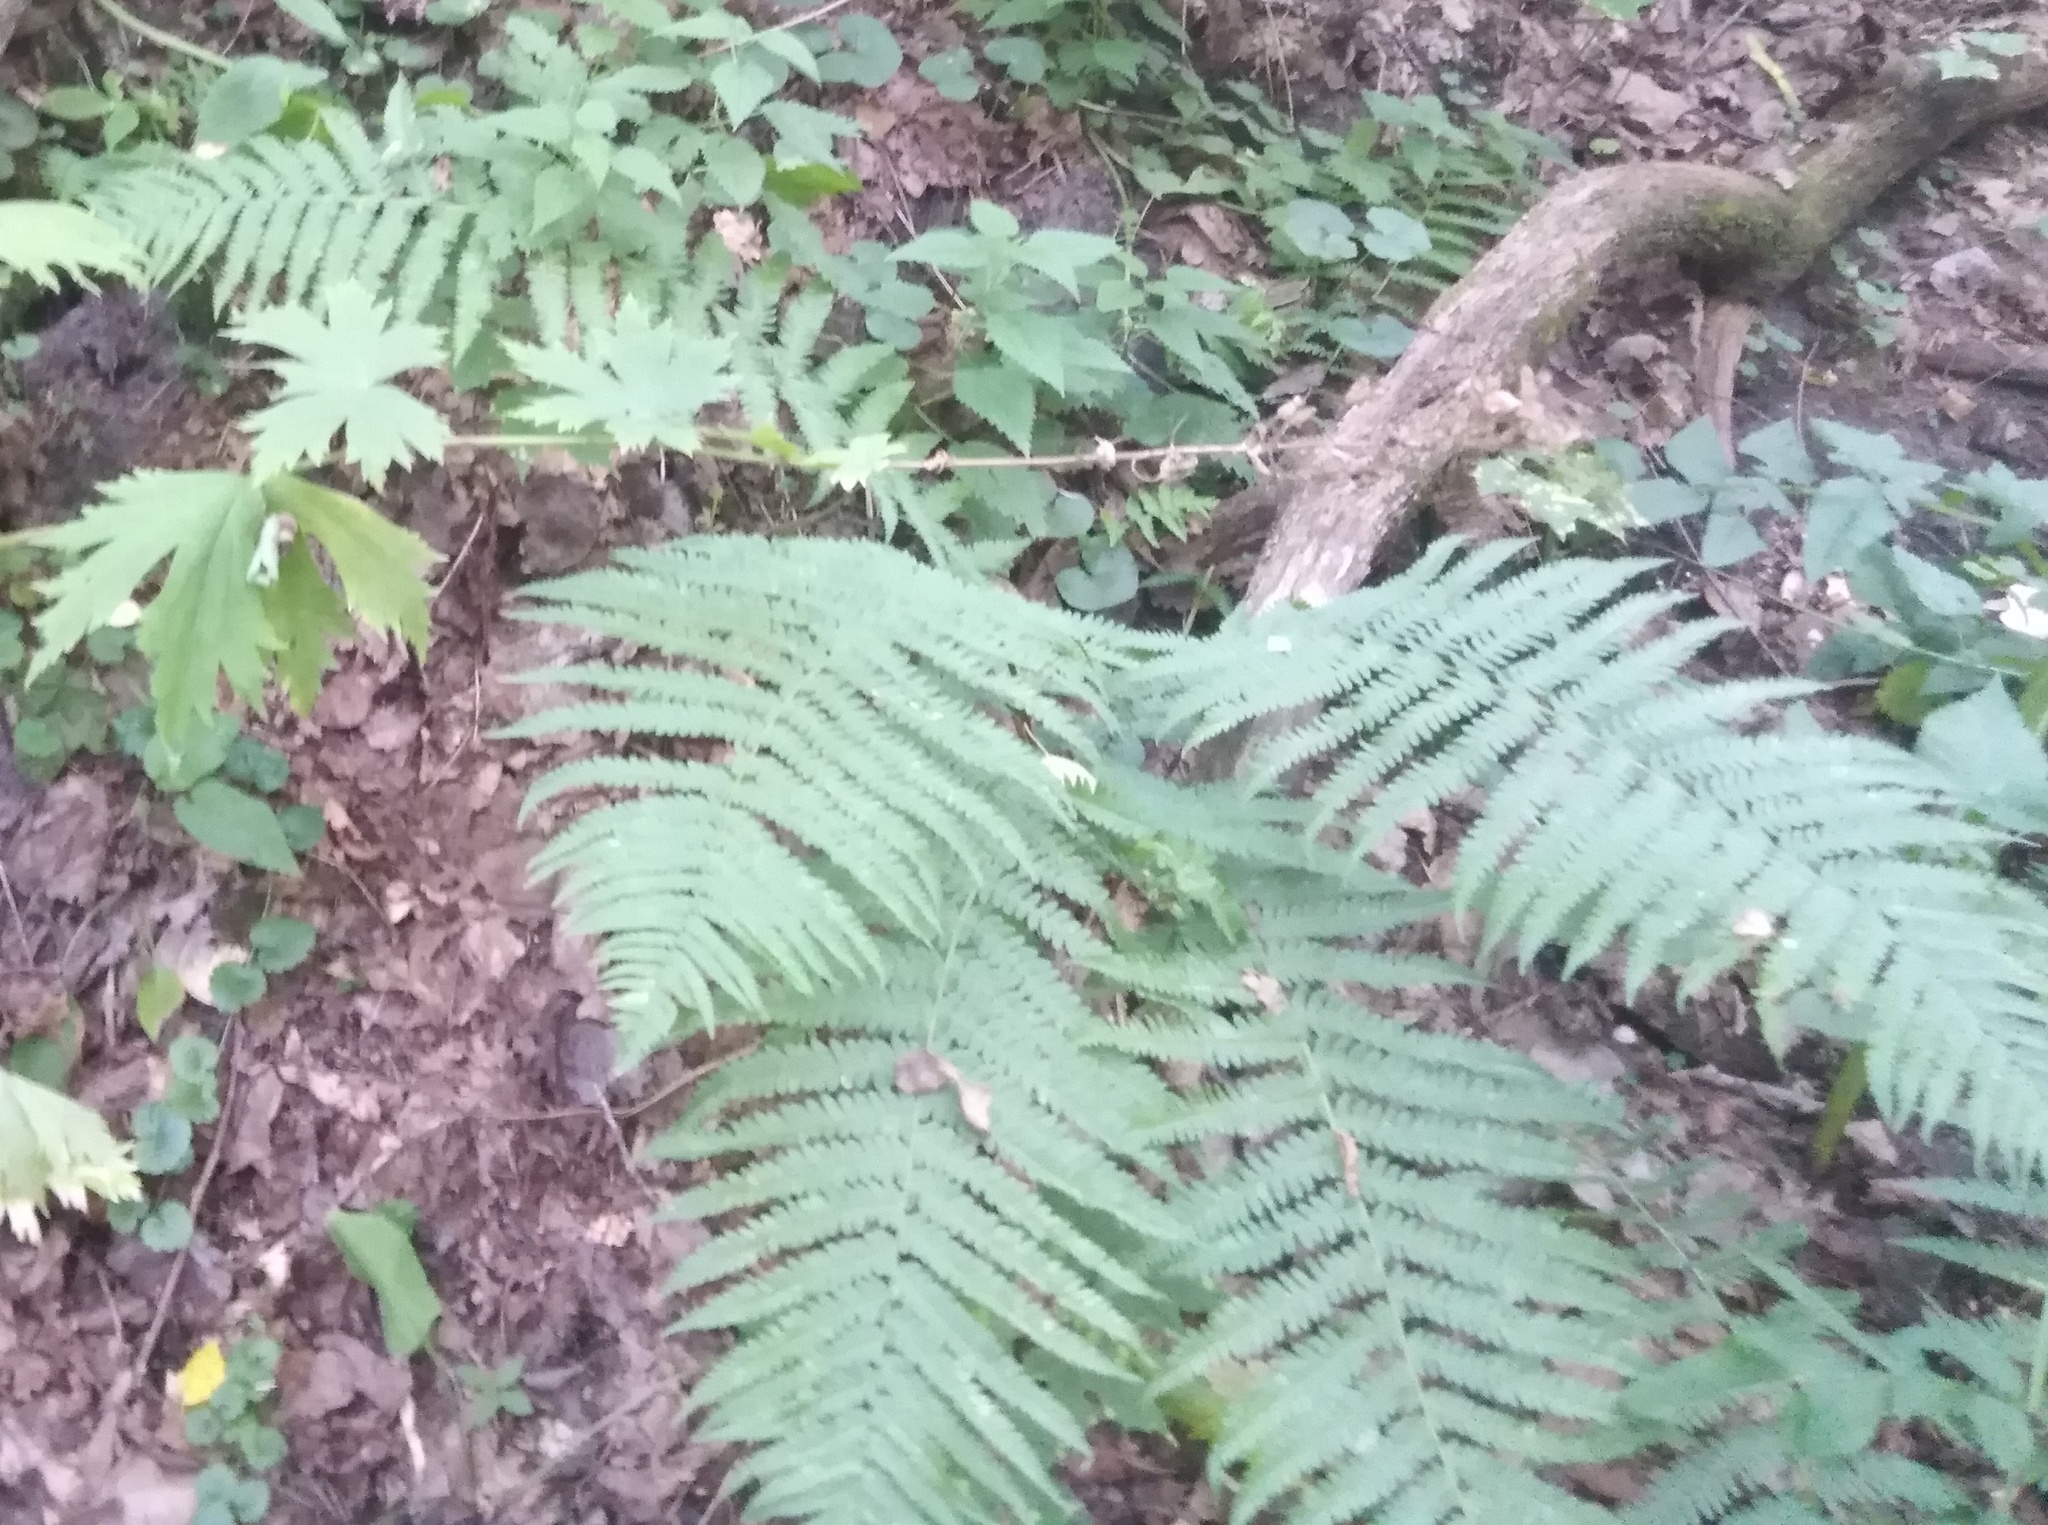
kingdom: Plantae
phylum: Tracheophyta
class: Polypodiopsida
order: Polypodiales
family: Dryopteridaceae
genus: Dryopteris
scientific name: Dryopteris filix-mas
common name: Male fern
